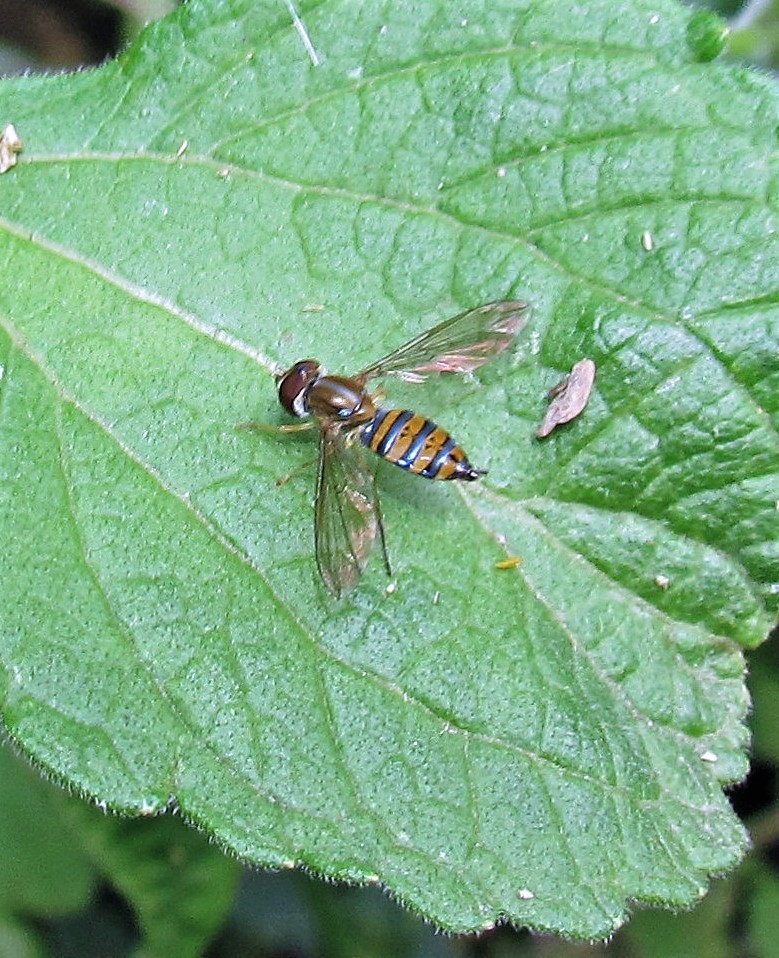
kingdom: Animalia
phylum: Arthropoda
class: Insecta
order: Diptera
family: Syrphidae
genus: Toxomerus
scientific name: Toxomerus
